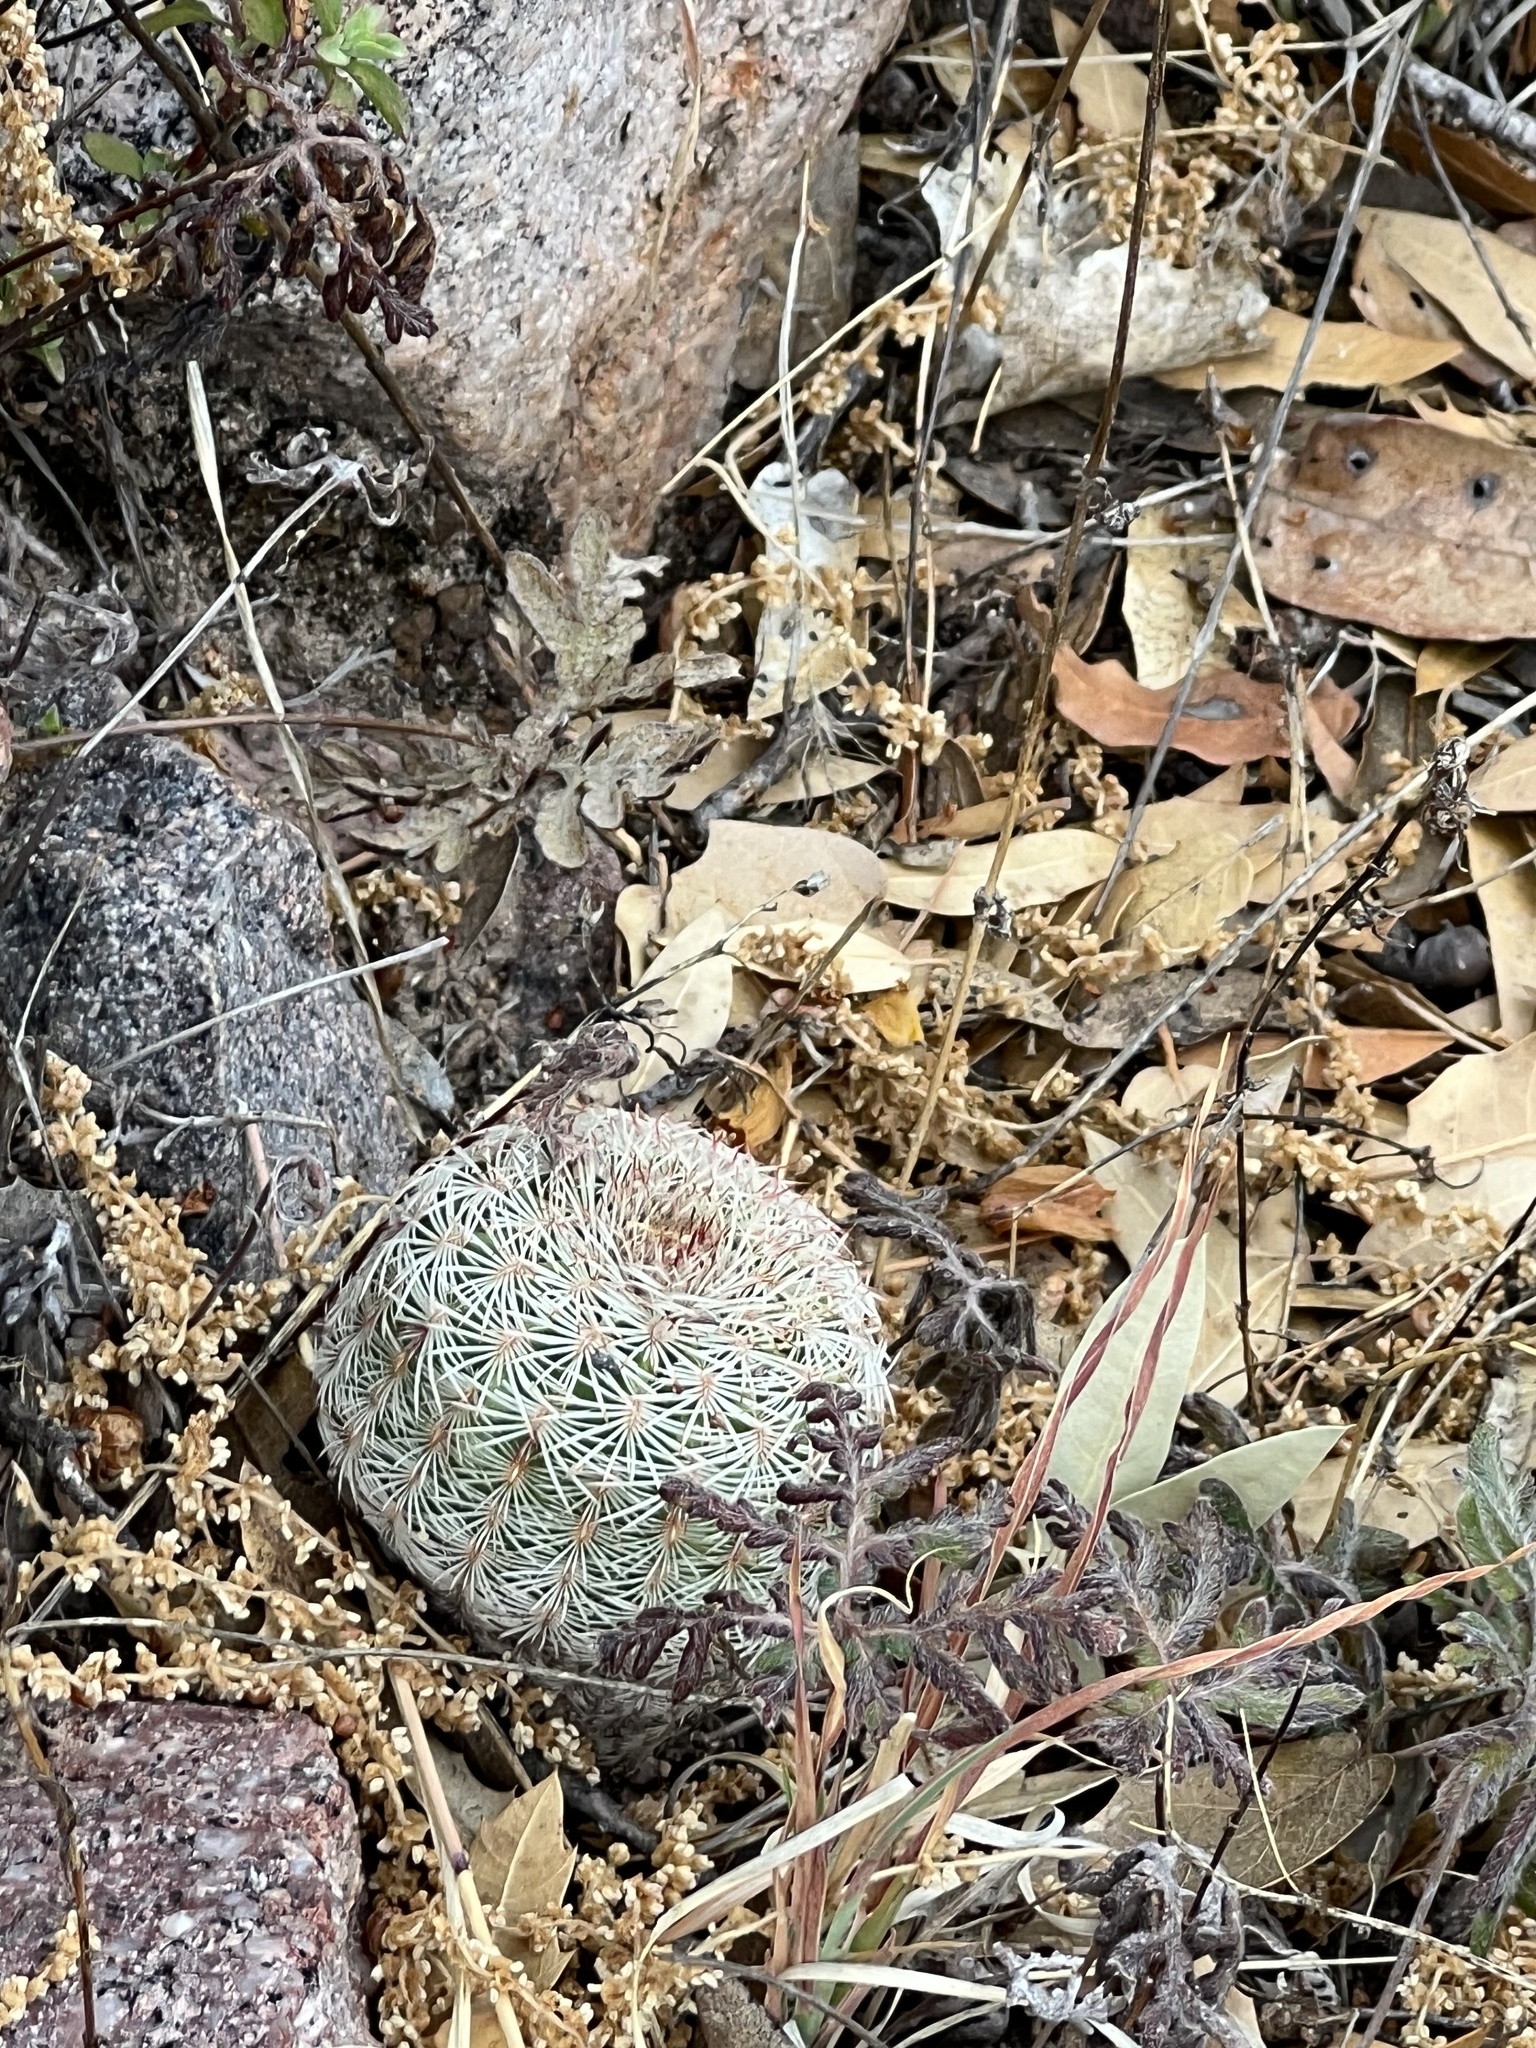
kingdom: Plantae
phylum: Tracheophyta
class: Magnoliopsida
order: Caryophyllales
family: Cactaceae
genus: Echinocereus
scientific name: Echinocereus rigidissimus
